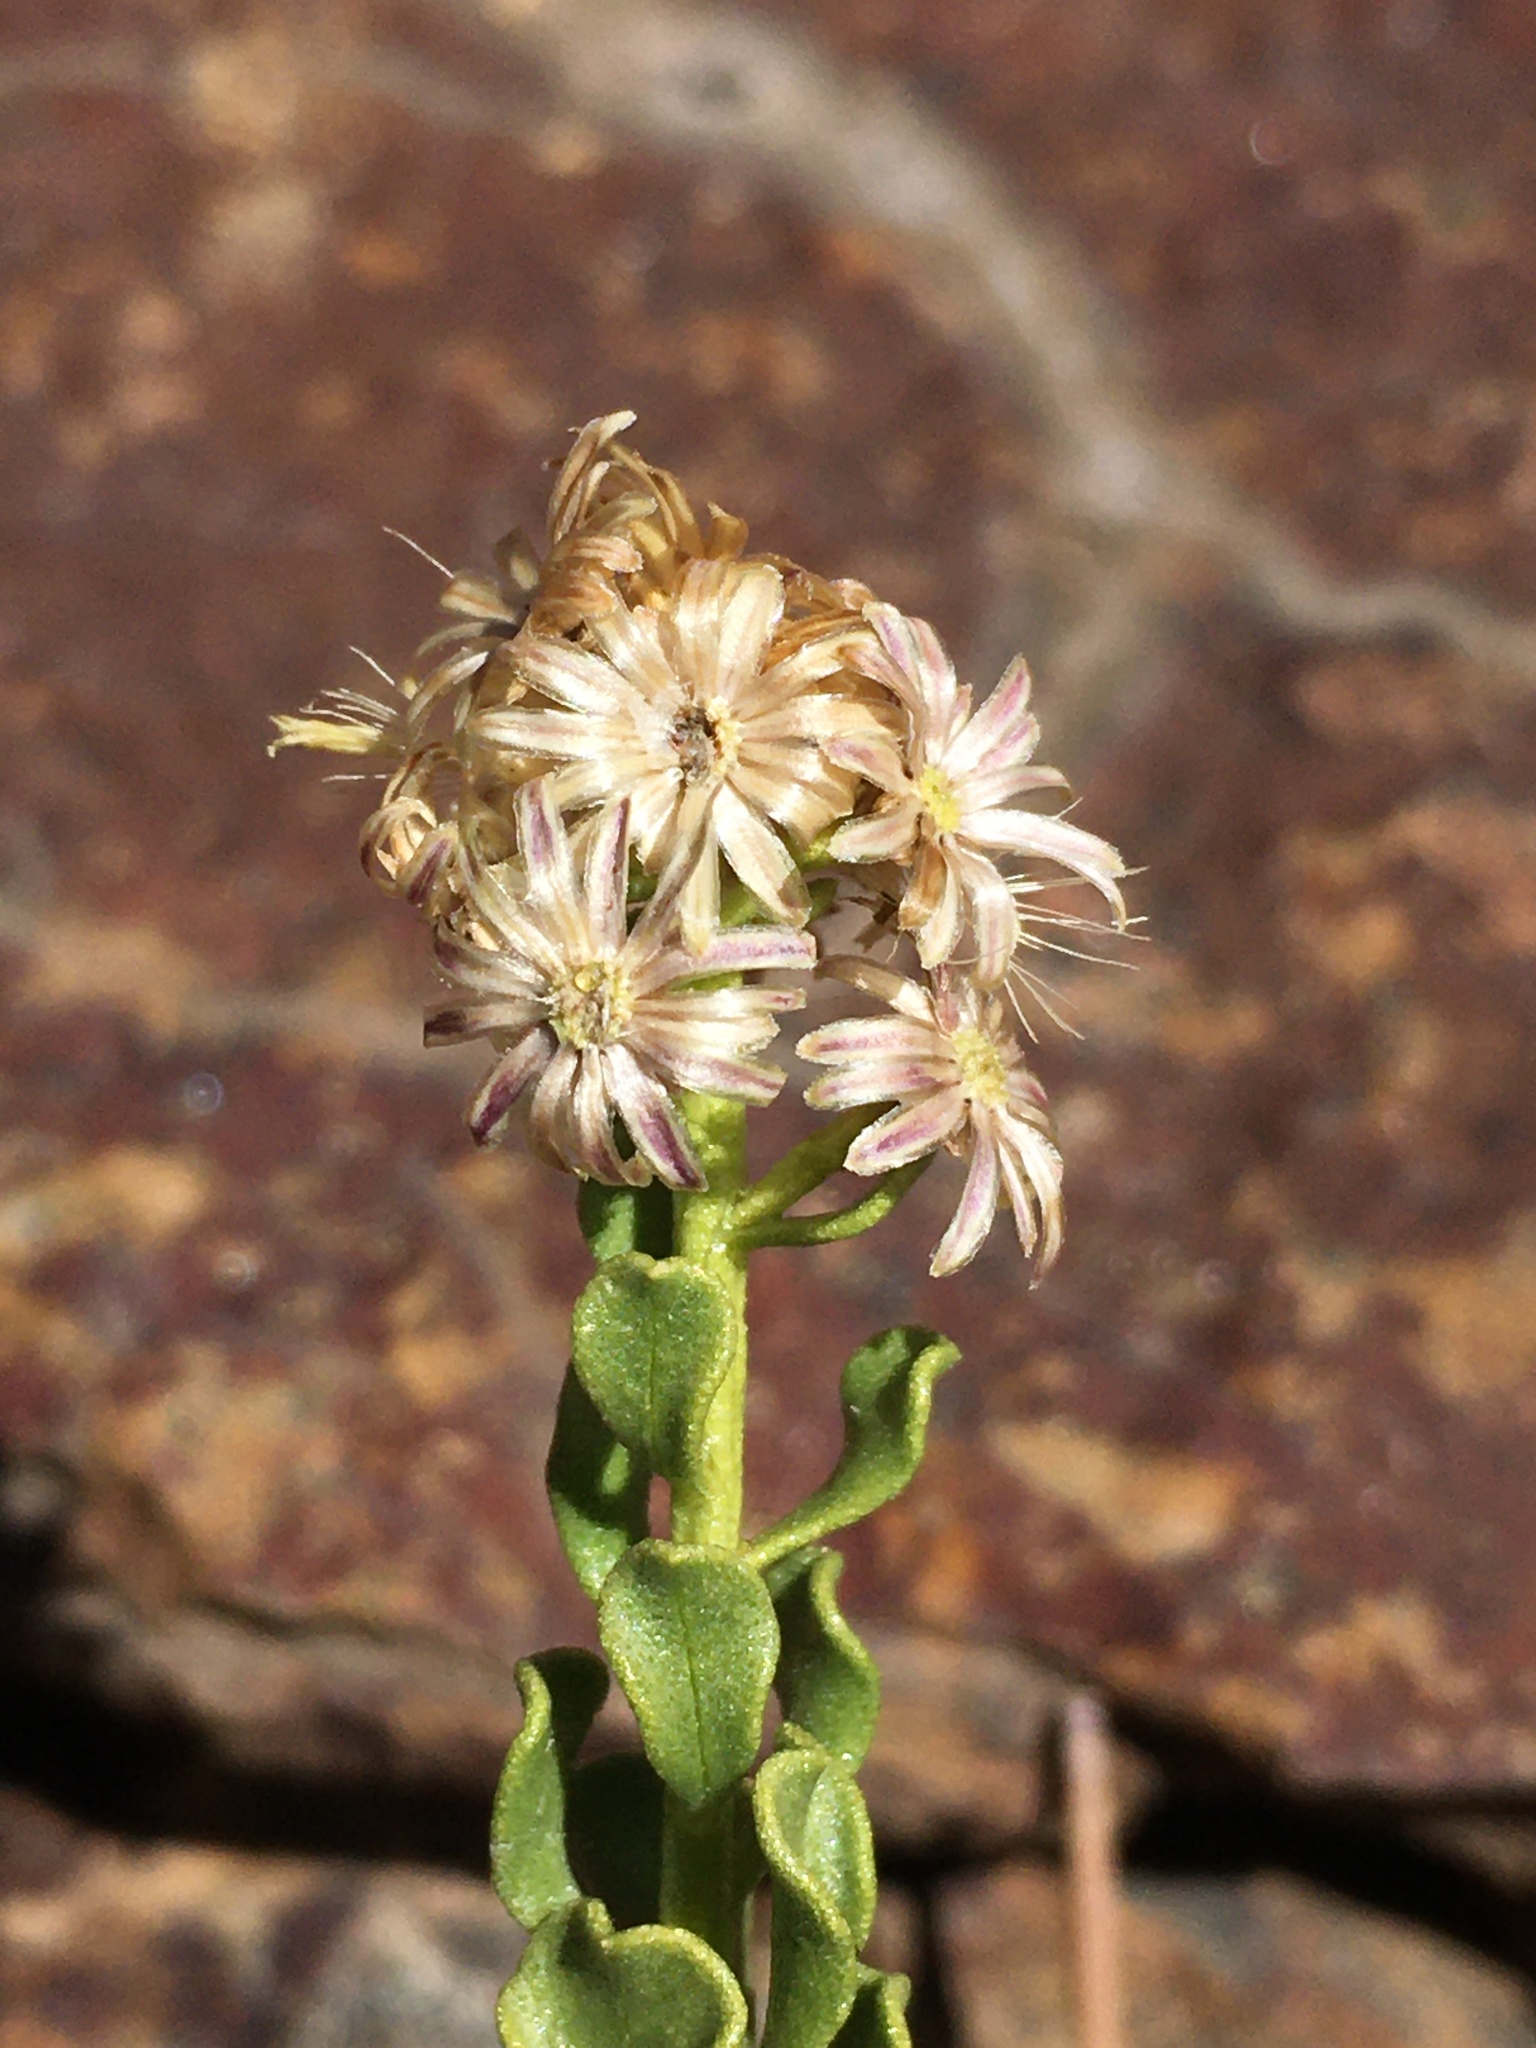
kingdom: Plantae
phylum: Tracheophyta
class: Magnoliopsida
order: Asterales
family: Asteraceae
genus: Ericameria
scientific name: Ericameria cuneata
